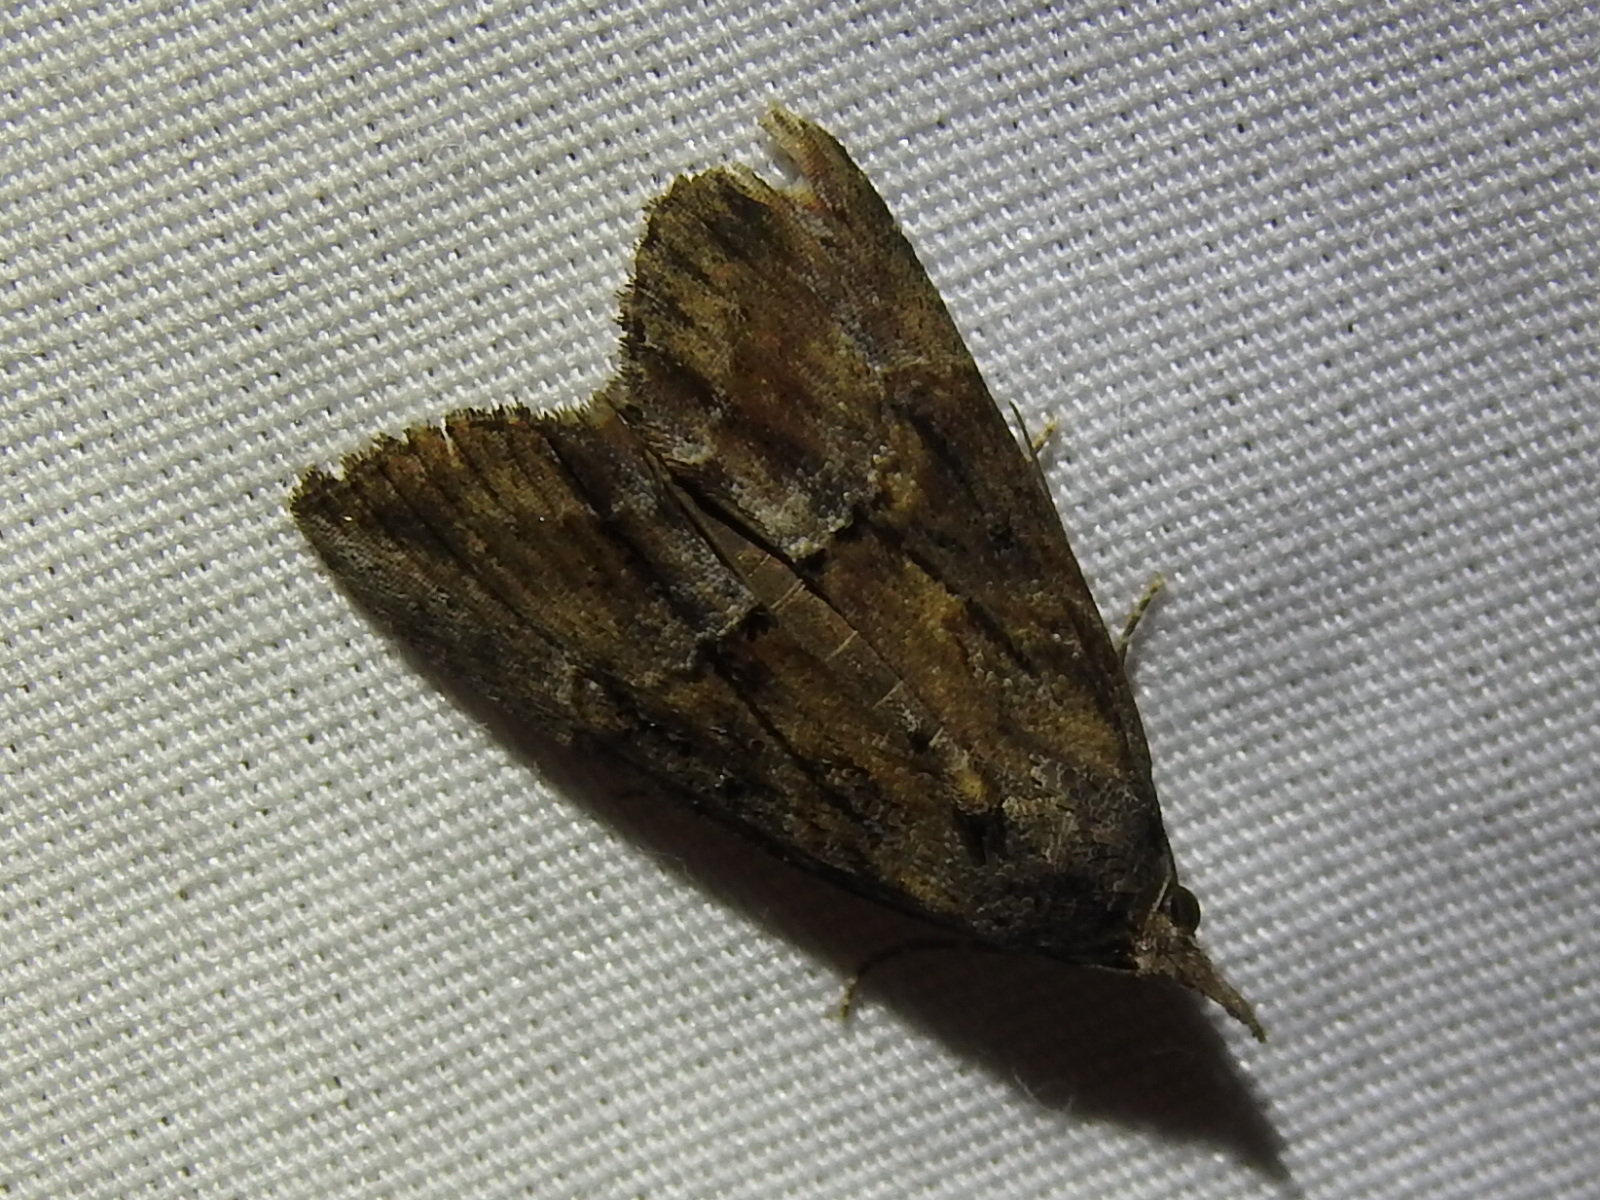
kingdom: Animalia
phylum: Arthropoda
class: Insecta
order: Lepidoptera
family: Erebidae
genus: Hypena
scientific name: Hypena scabra
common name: Green cloverworm
